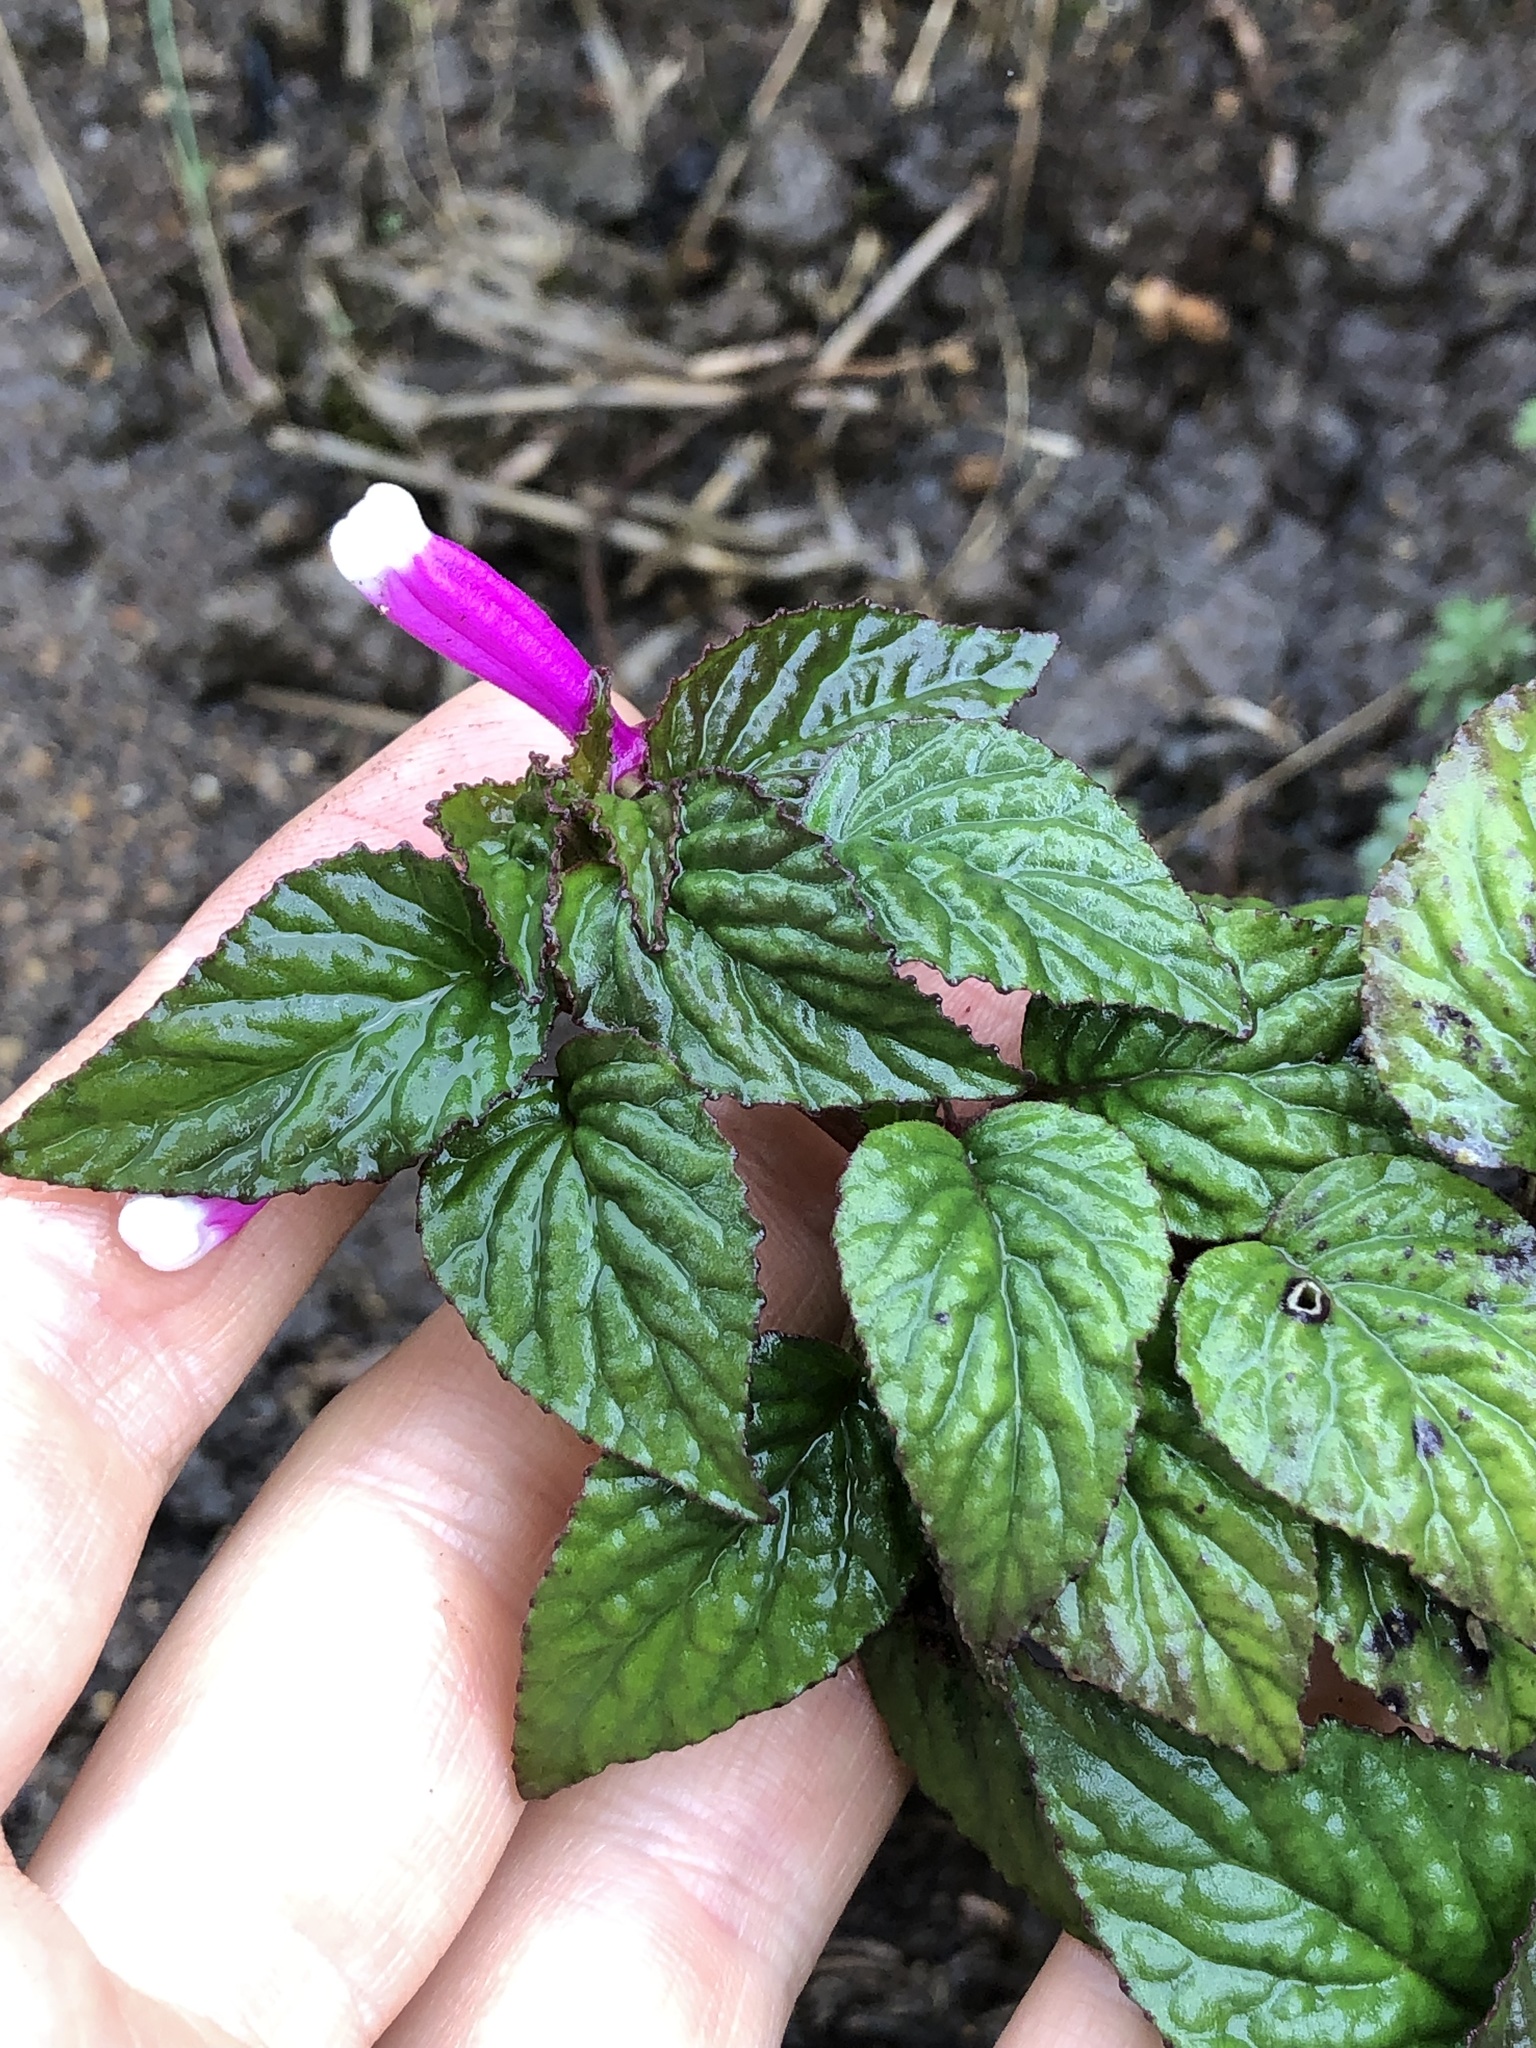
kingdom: Plantae
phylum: Tracheophyta
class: Magnoliopsida
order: Asterales
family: Campanulaceae
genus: Centropogon
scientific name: Centropogon leucophyllus
